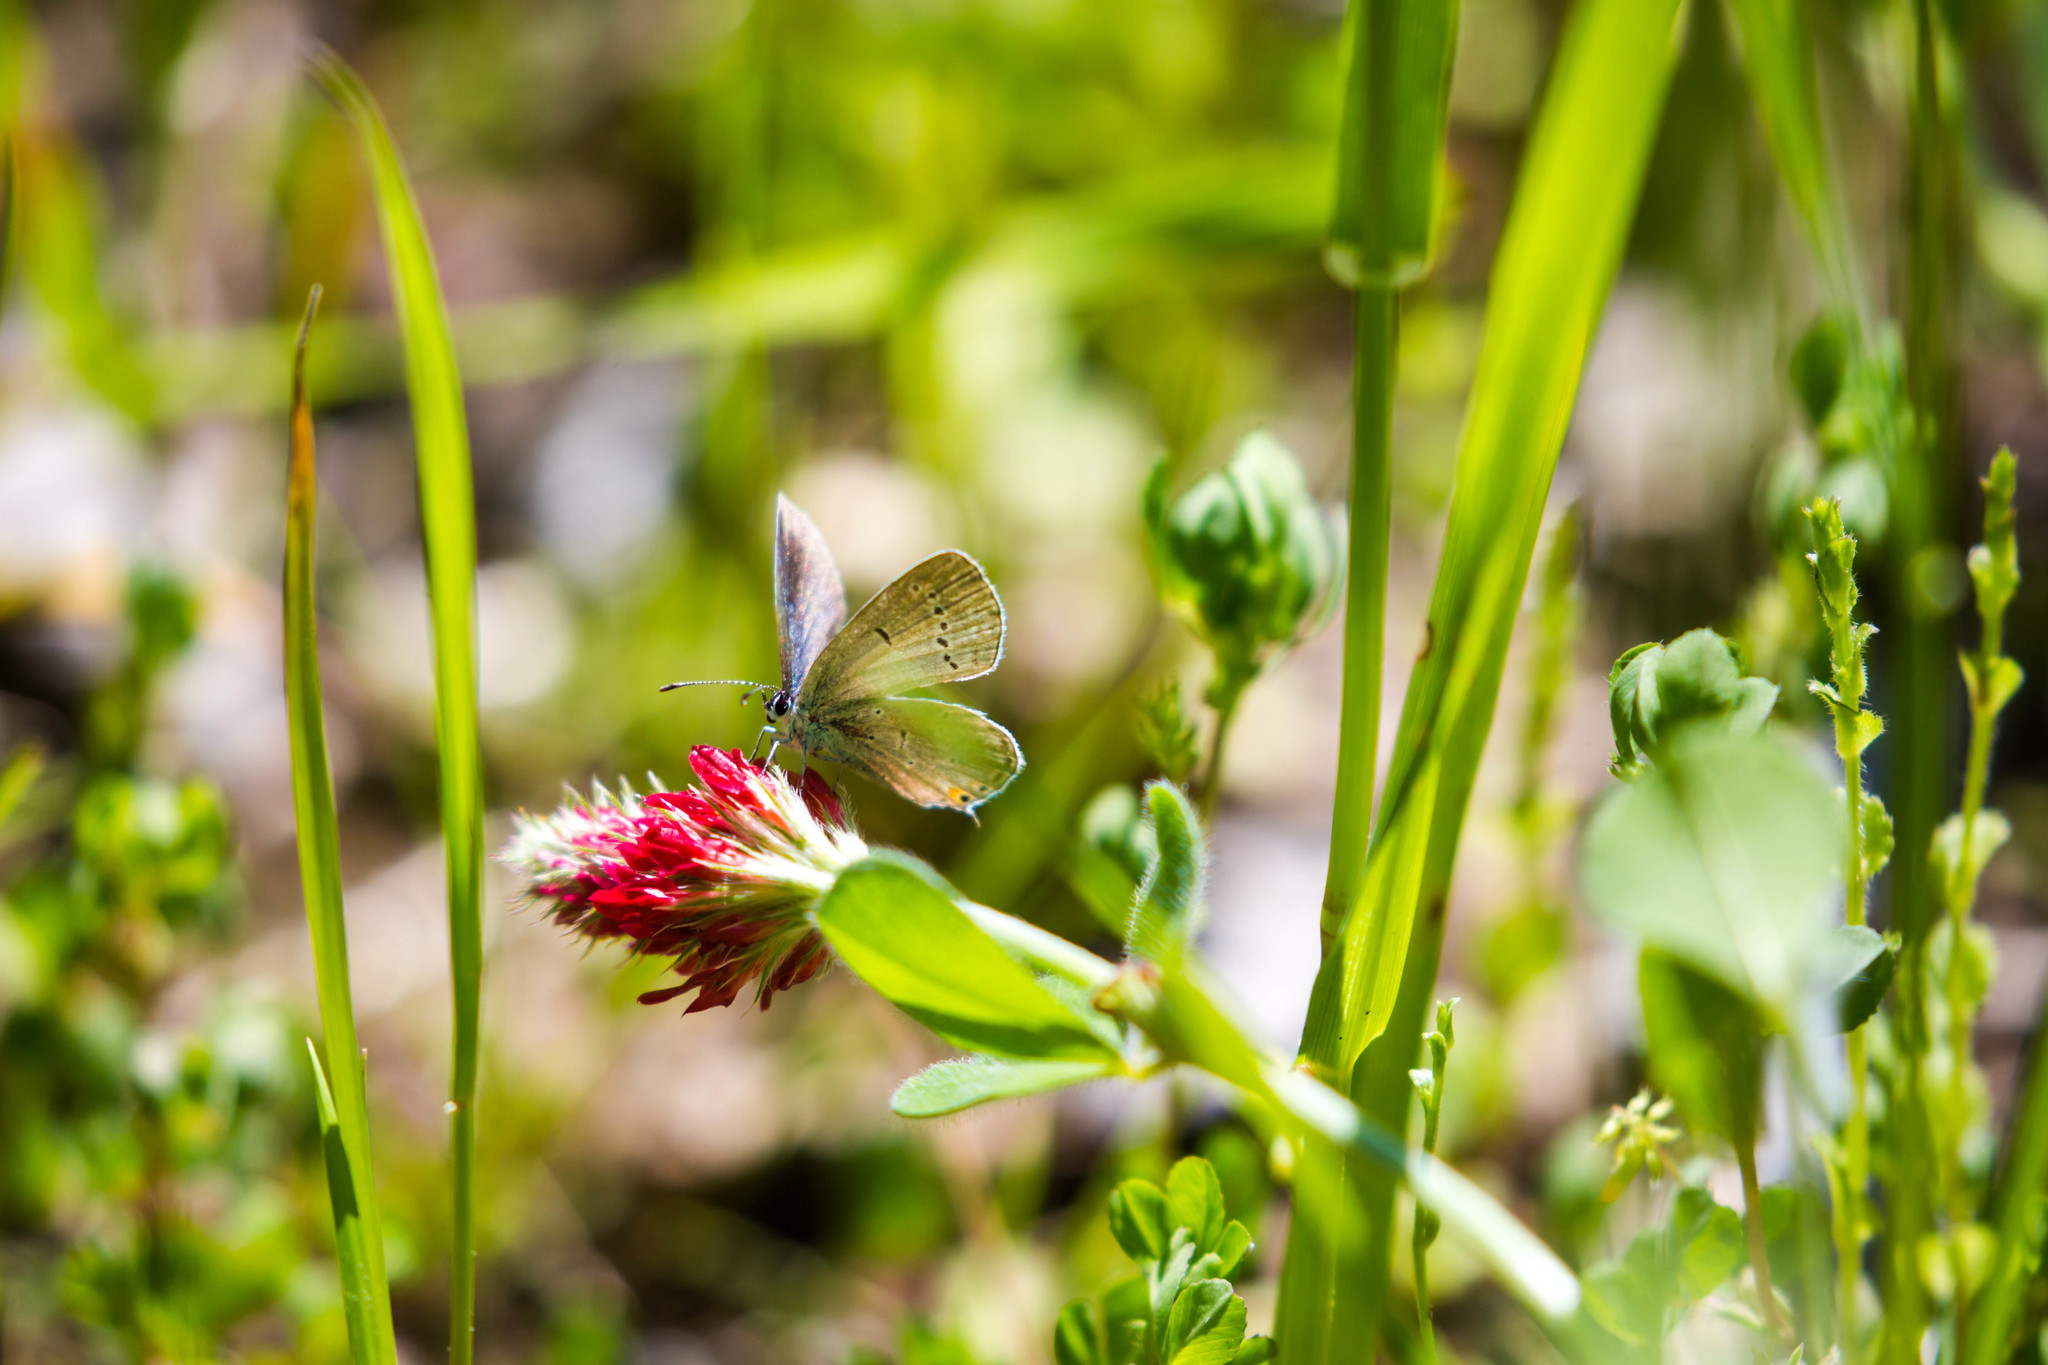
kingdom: Animalia
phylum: Arthropoda
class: Insecta
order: Lepidoptera
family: Lycaenidae
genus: Elkalyce
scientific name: Elkalyce comyntas
